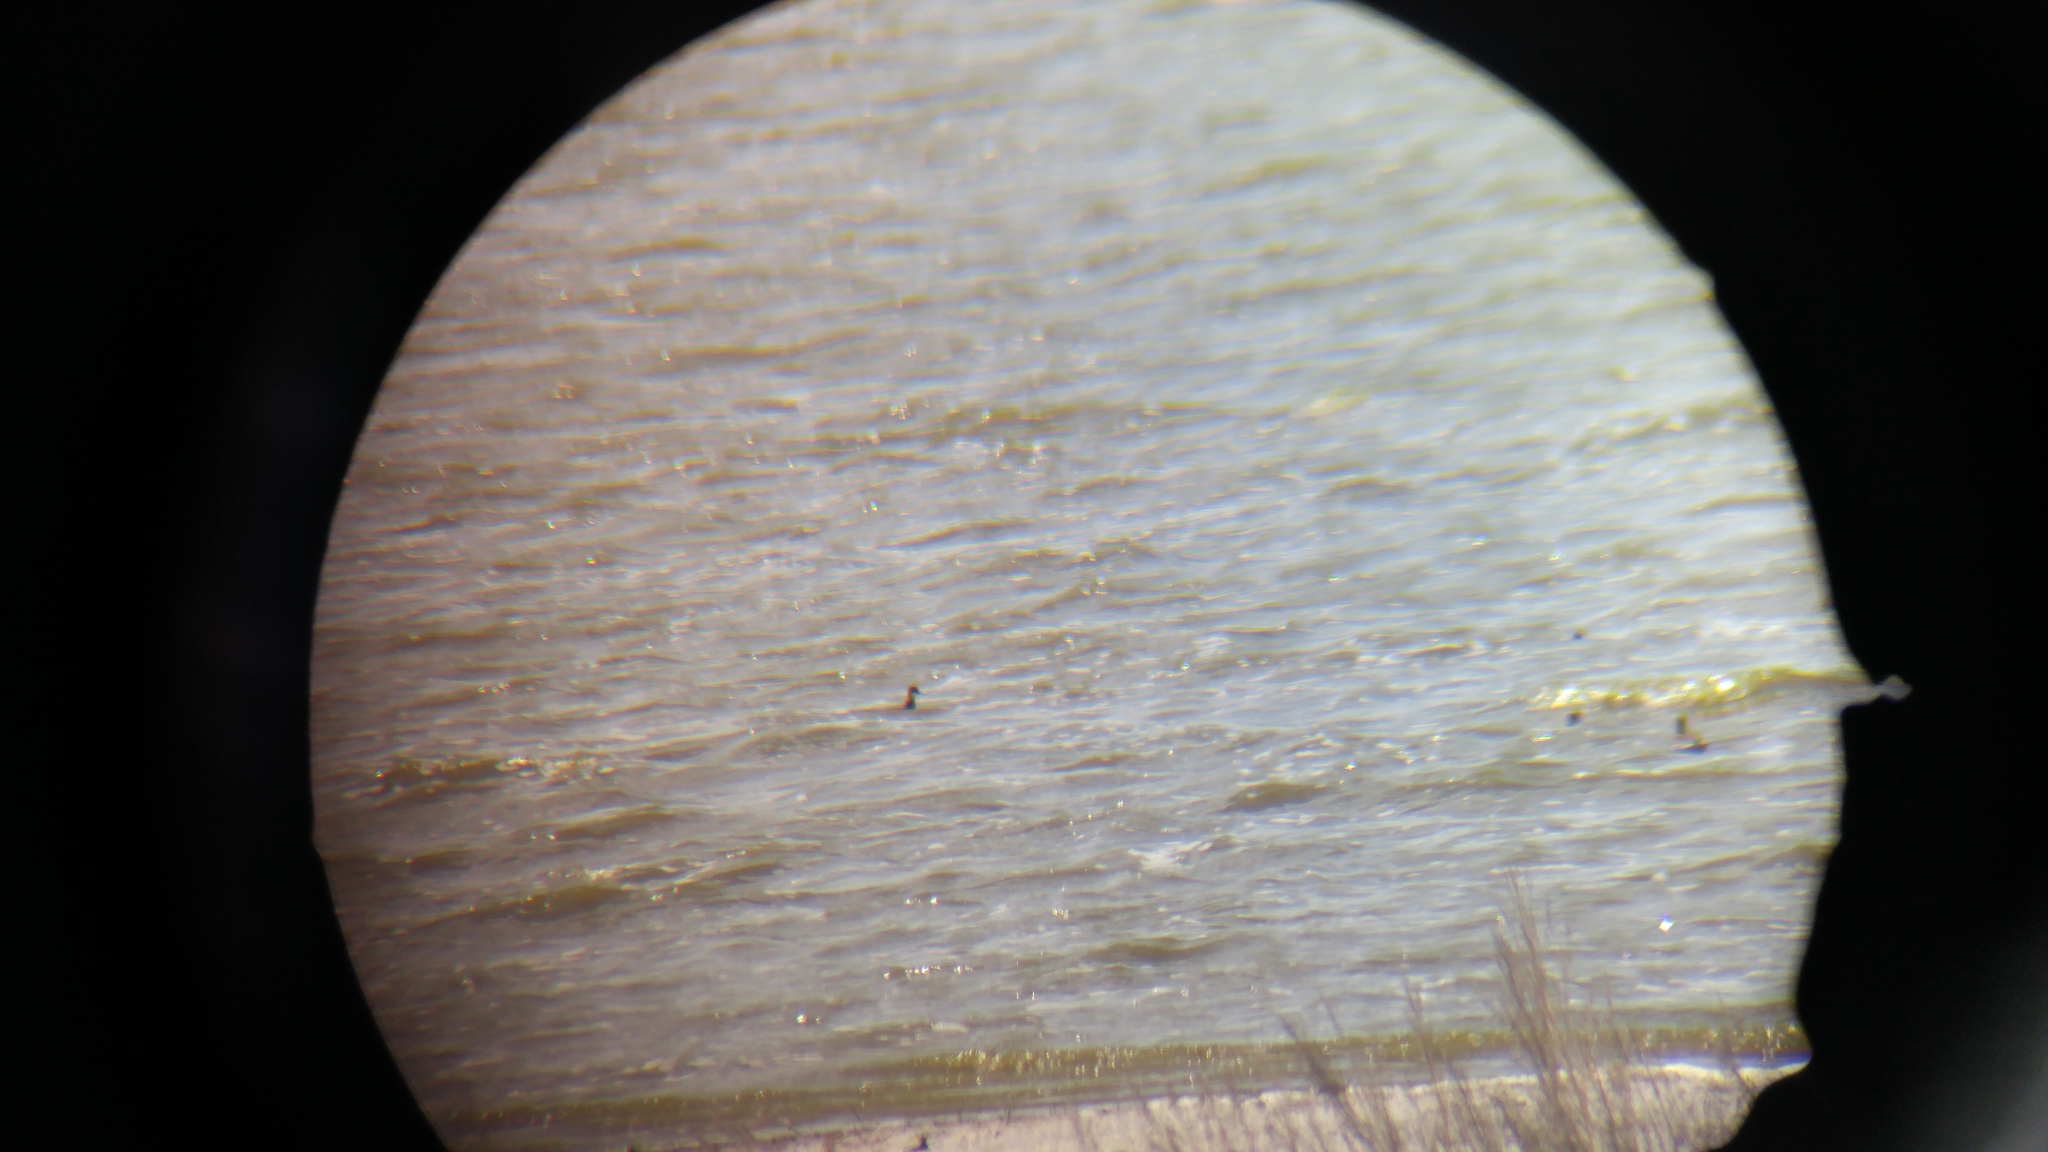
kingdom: Animalia
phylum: Chordata
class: Aves
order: Charadriiformes
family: Scolopacidae
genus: Phalaropus
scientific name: Phalaropus lobatus
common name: Red-necked phalarope
